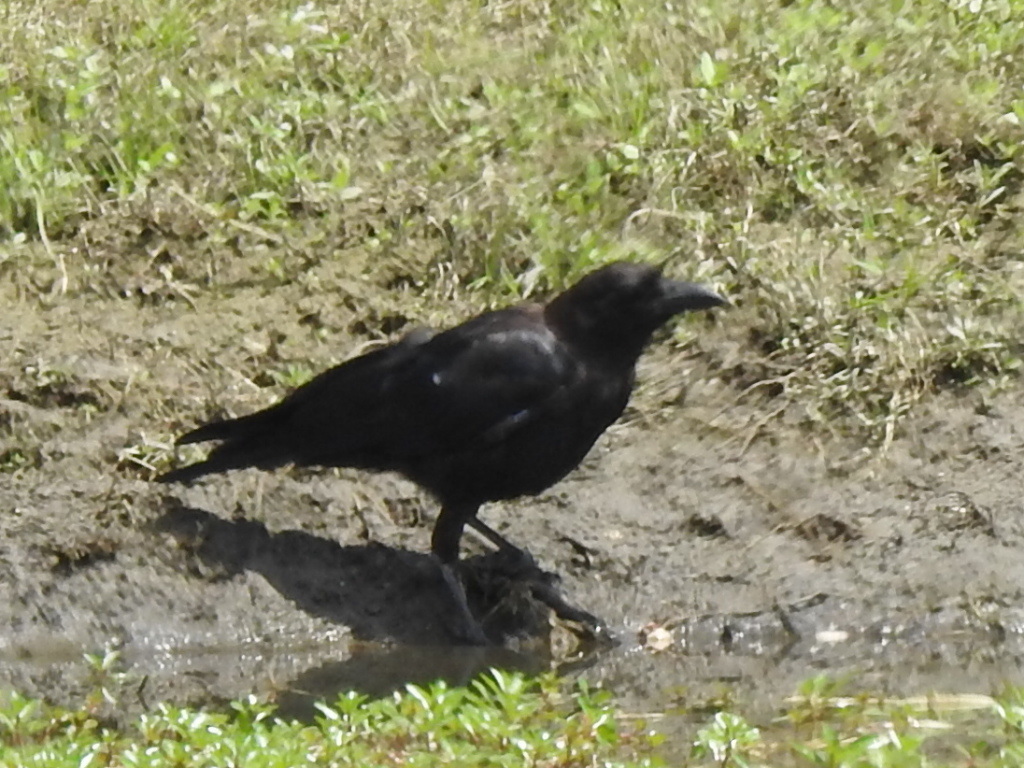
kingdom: Animalia
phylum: Chordata
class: Aves
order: Passeriformes
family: Corvidae
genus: Corvus
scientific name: Corvus brachyrhynchos
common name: American crow
